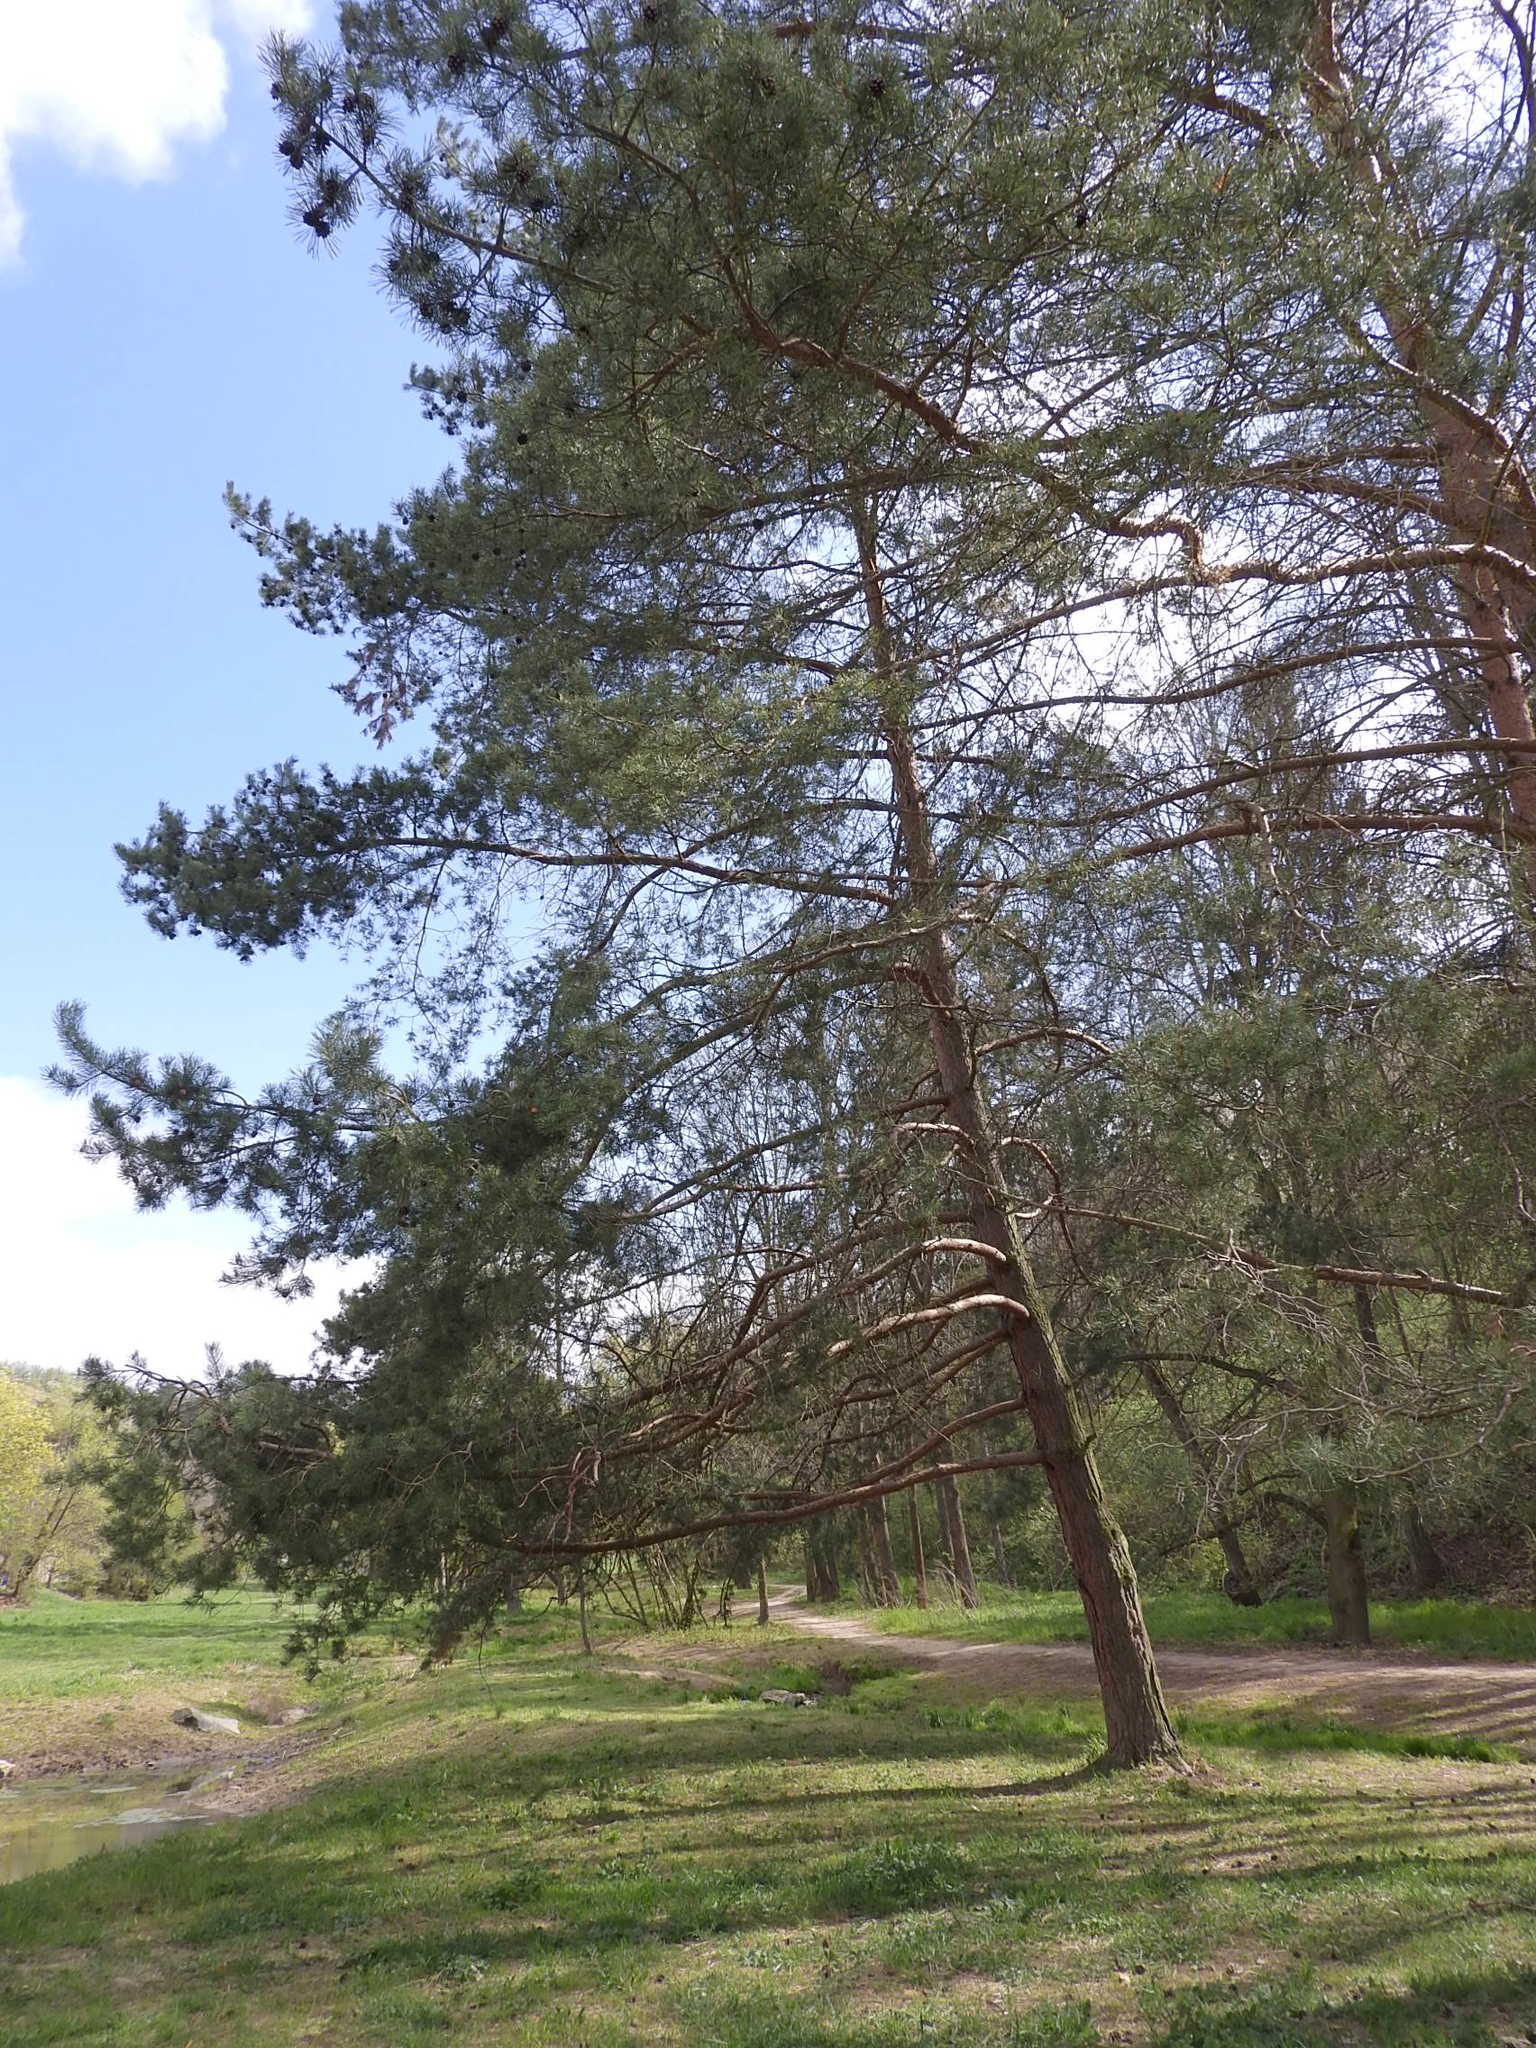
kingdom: Plantae
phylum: Tracheophyta
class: Pinopsida
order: Pinales
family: Pinaceae
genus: Pinus
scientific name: Pinus sylvestris
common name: Scots pine
